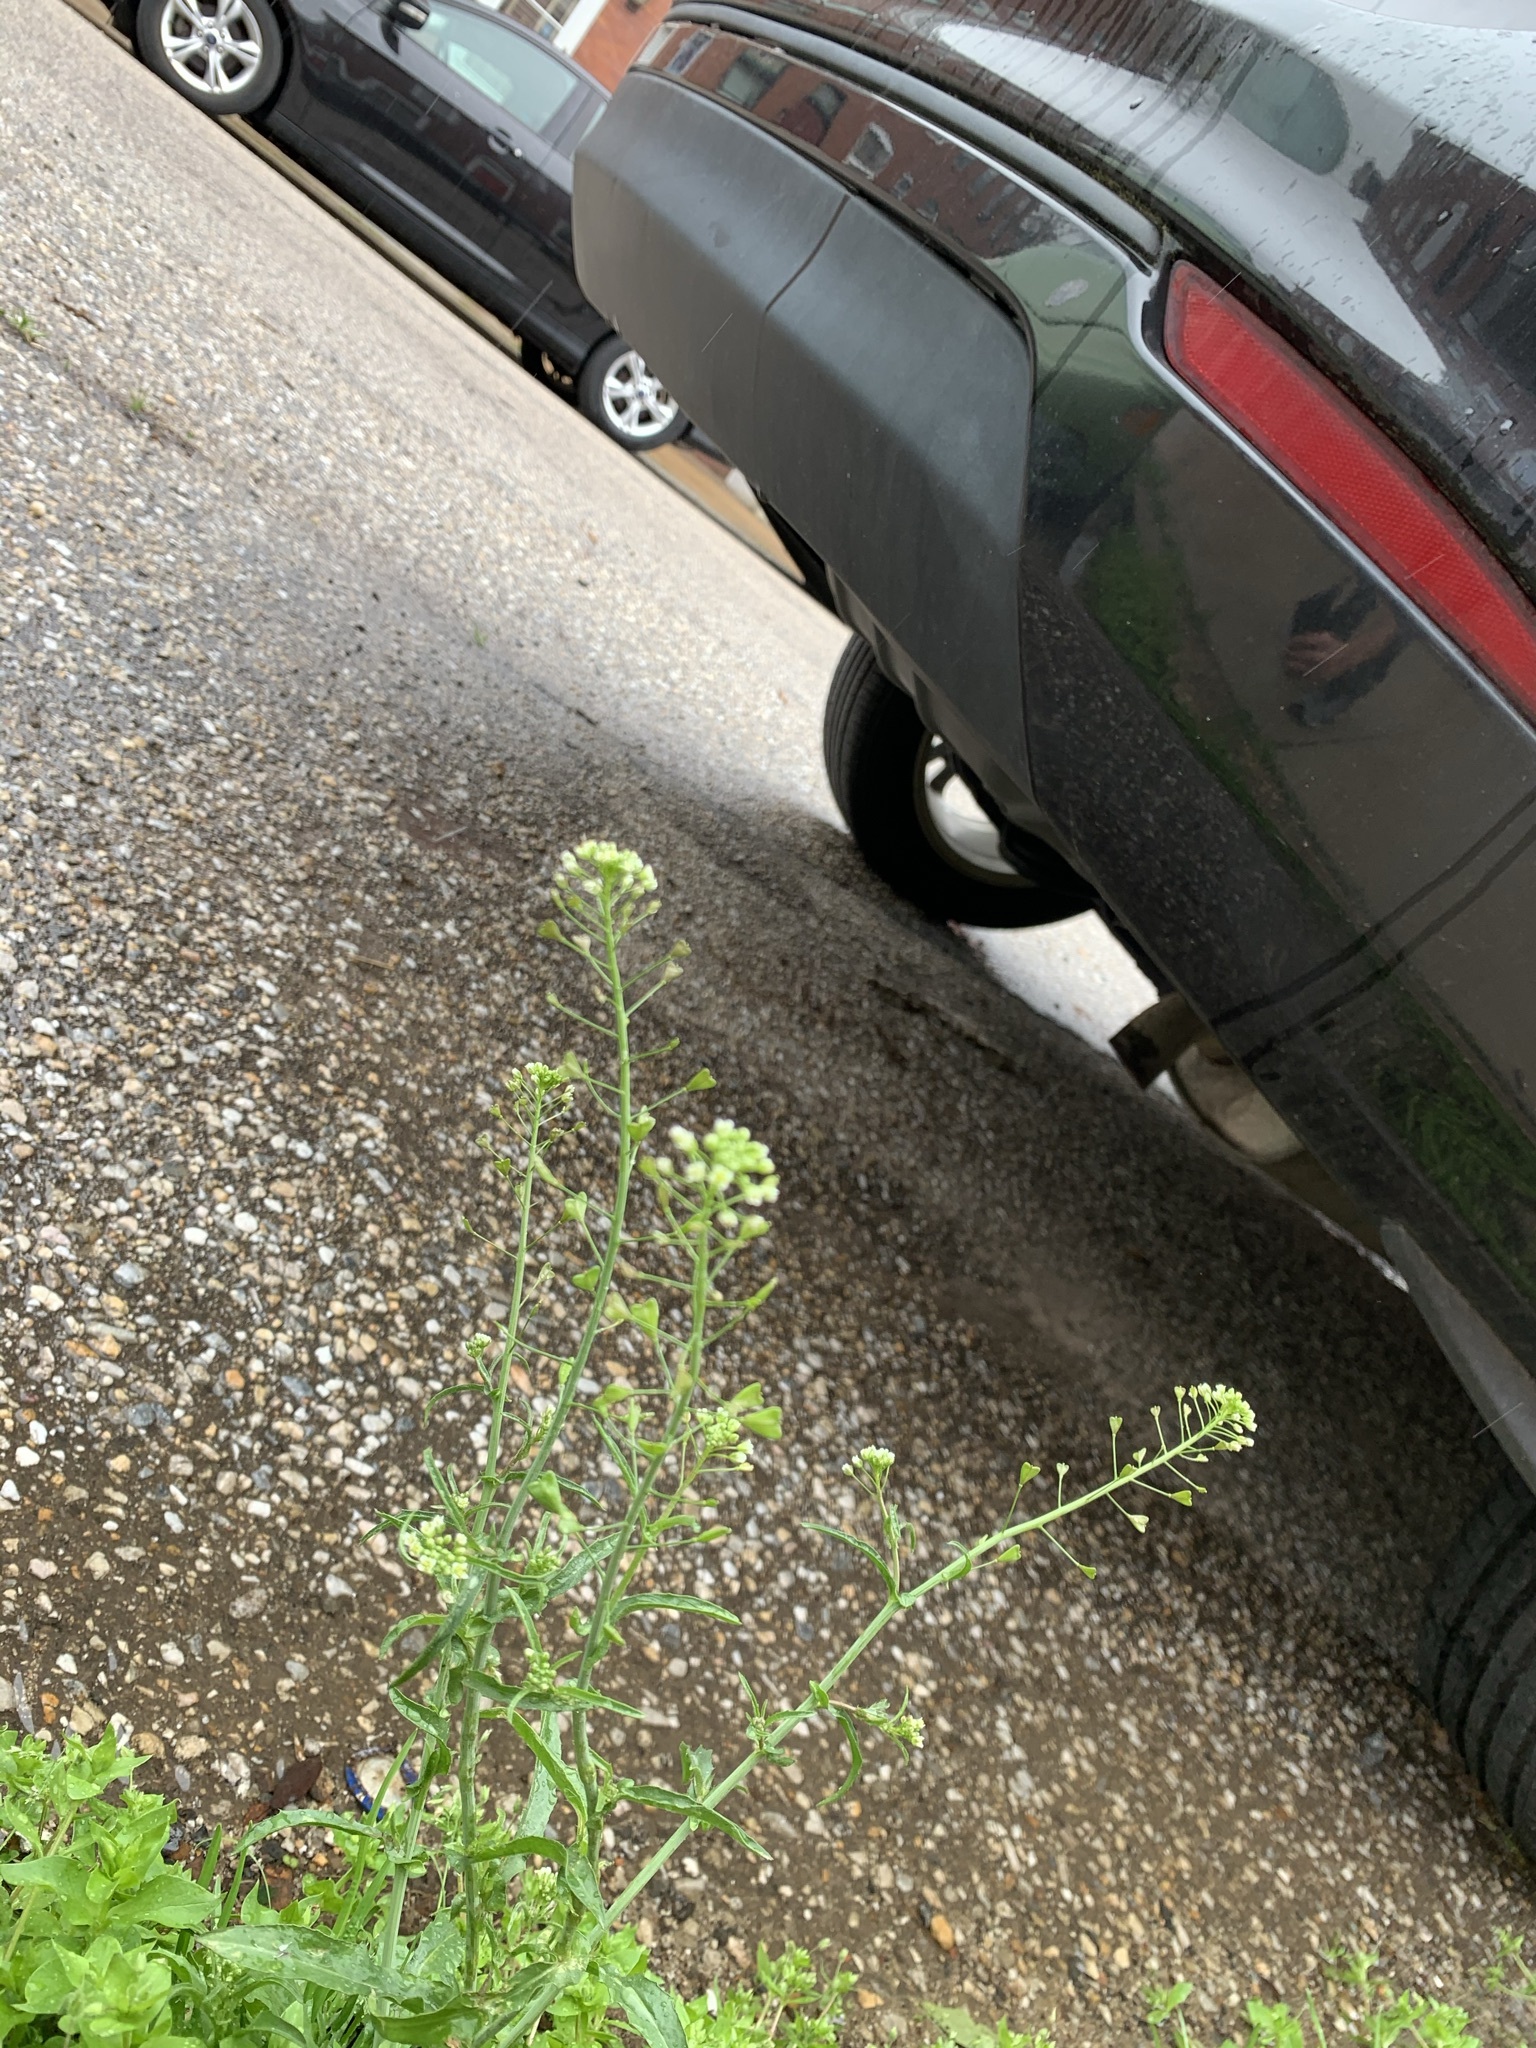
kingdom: Plantae
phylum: Tracheophyta
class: Magnoliopsida
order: Brassicales
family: Brassicaceae
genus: Capsella
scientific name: Capsella bursa-pastoris
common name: Shepherd's purse
